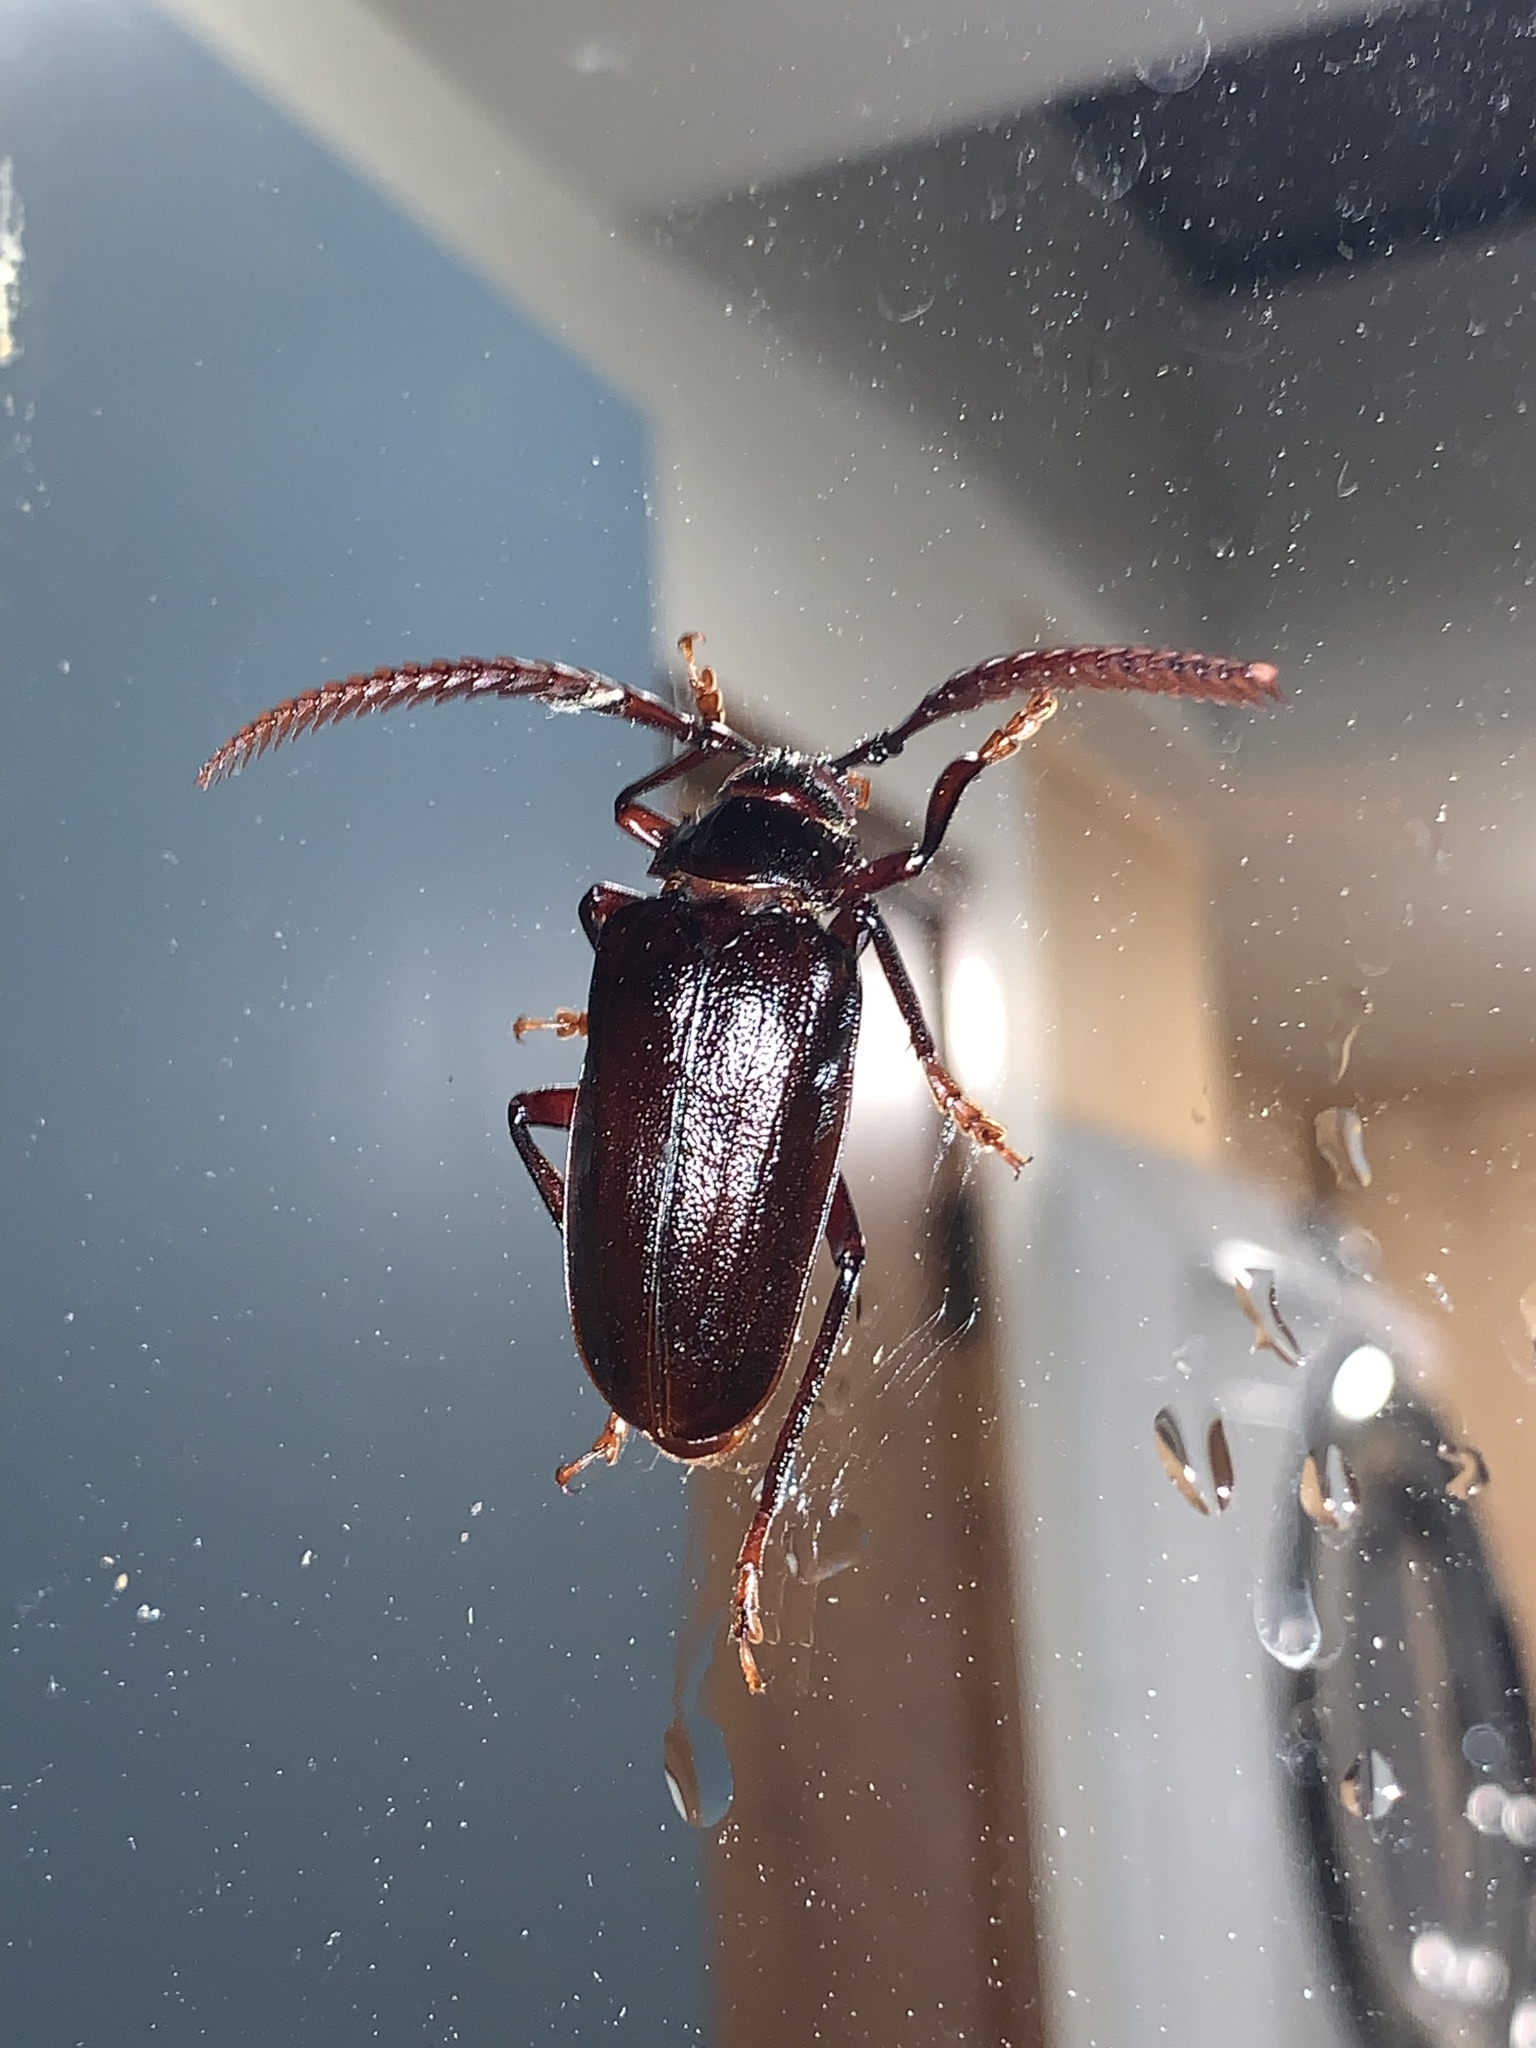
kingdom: Animalia
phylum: Arthropoda
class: Insecta
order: Coleoptera
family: Cerambycidae
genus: Prionus
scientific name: Prionus imbricornis
